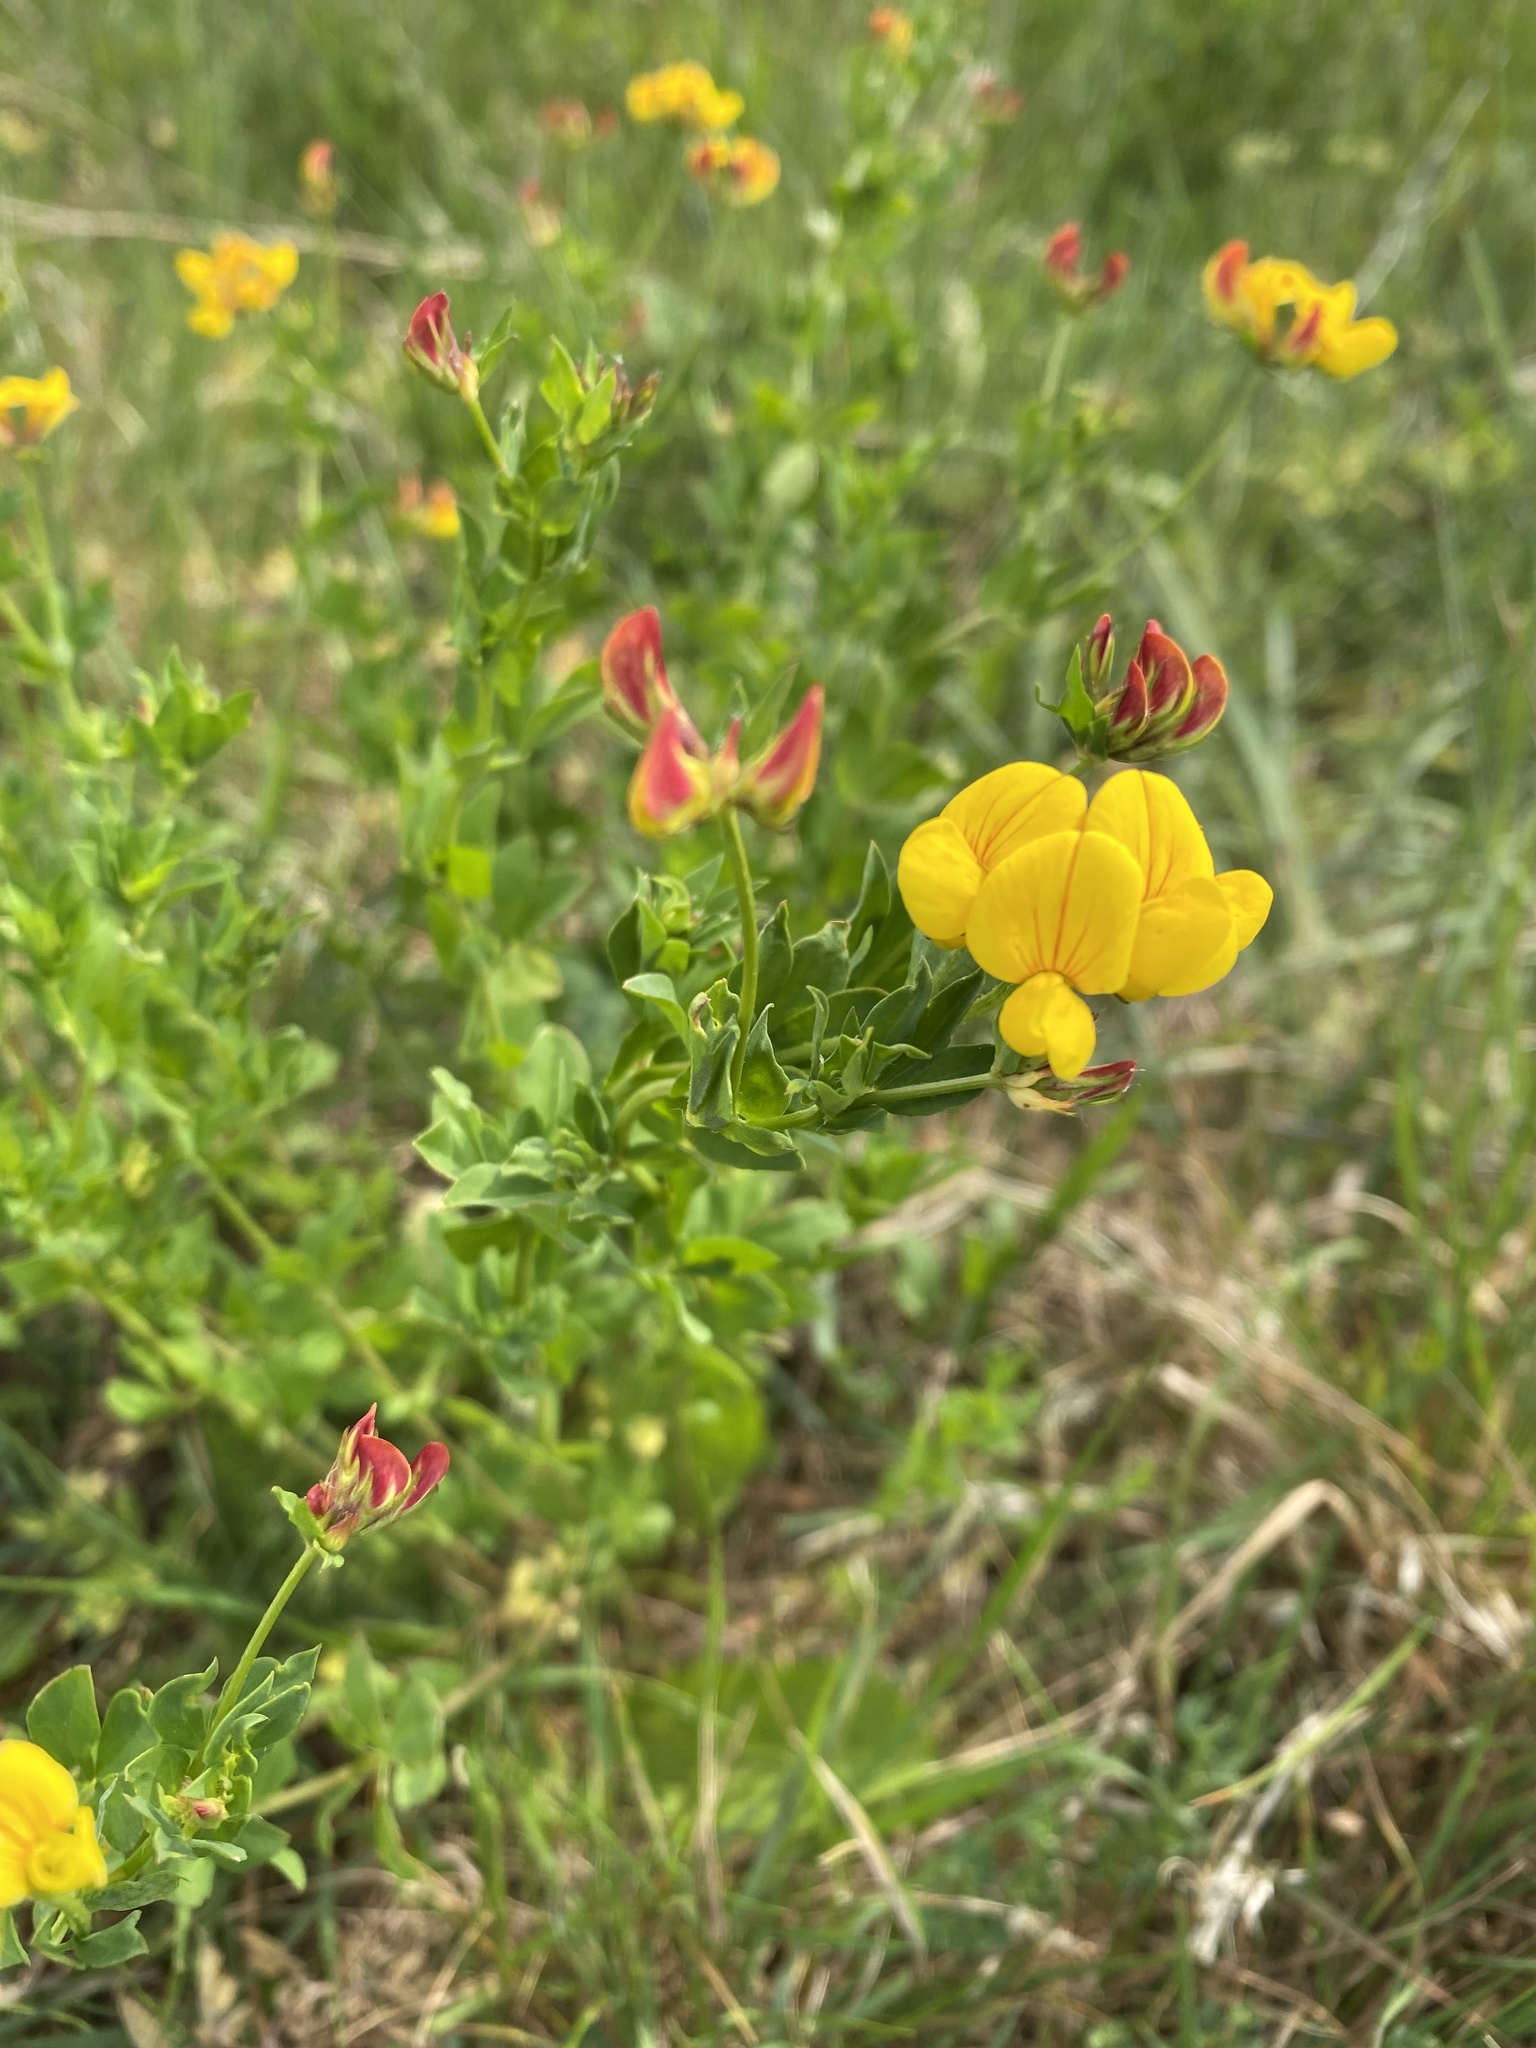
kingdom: Plantae
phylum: Tracheophyta
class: Magnoliopsida
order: Fabales
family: Fabaceae
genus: Lotus
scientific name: Lotus corniculatus
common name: Common bird's-foot-trefoil
